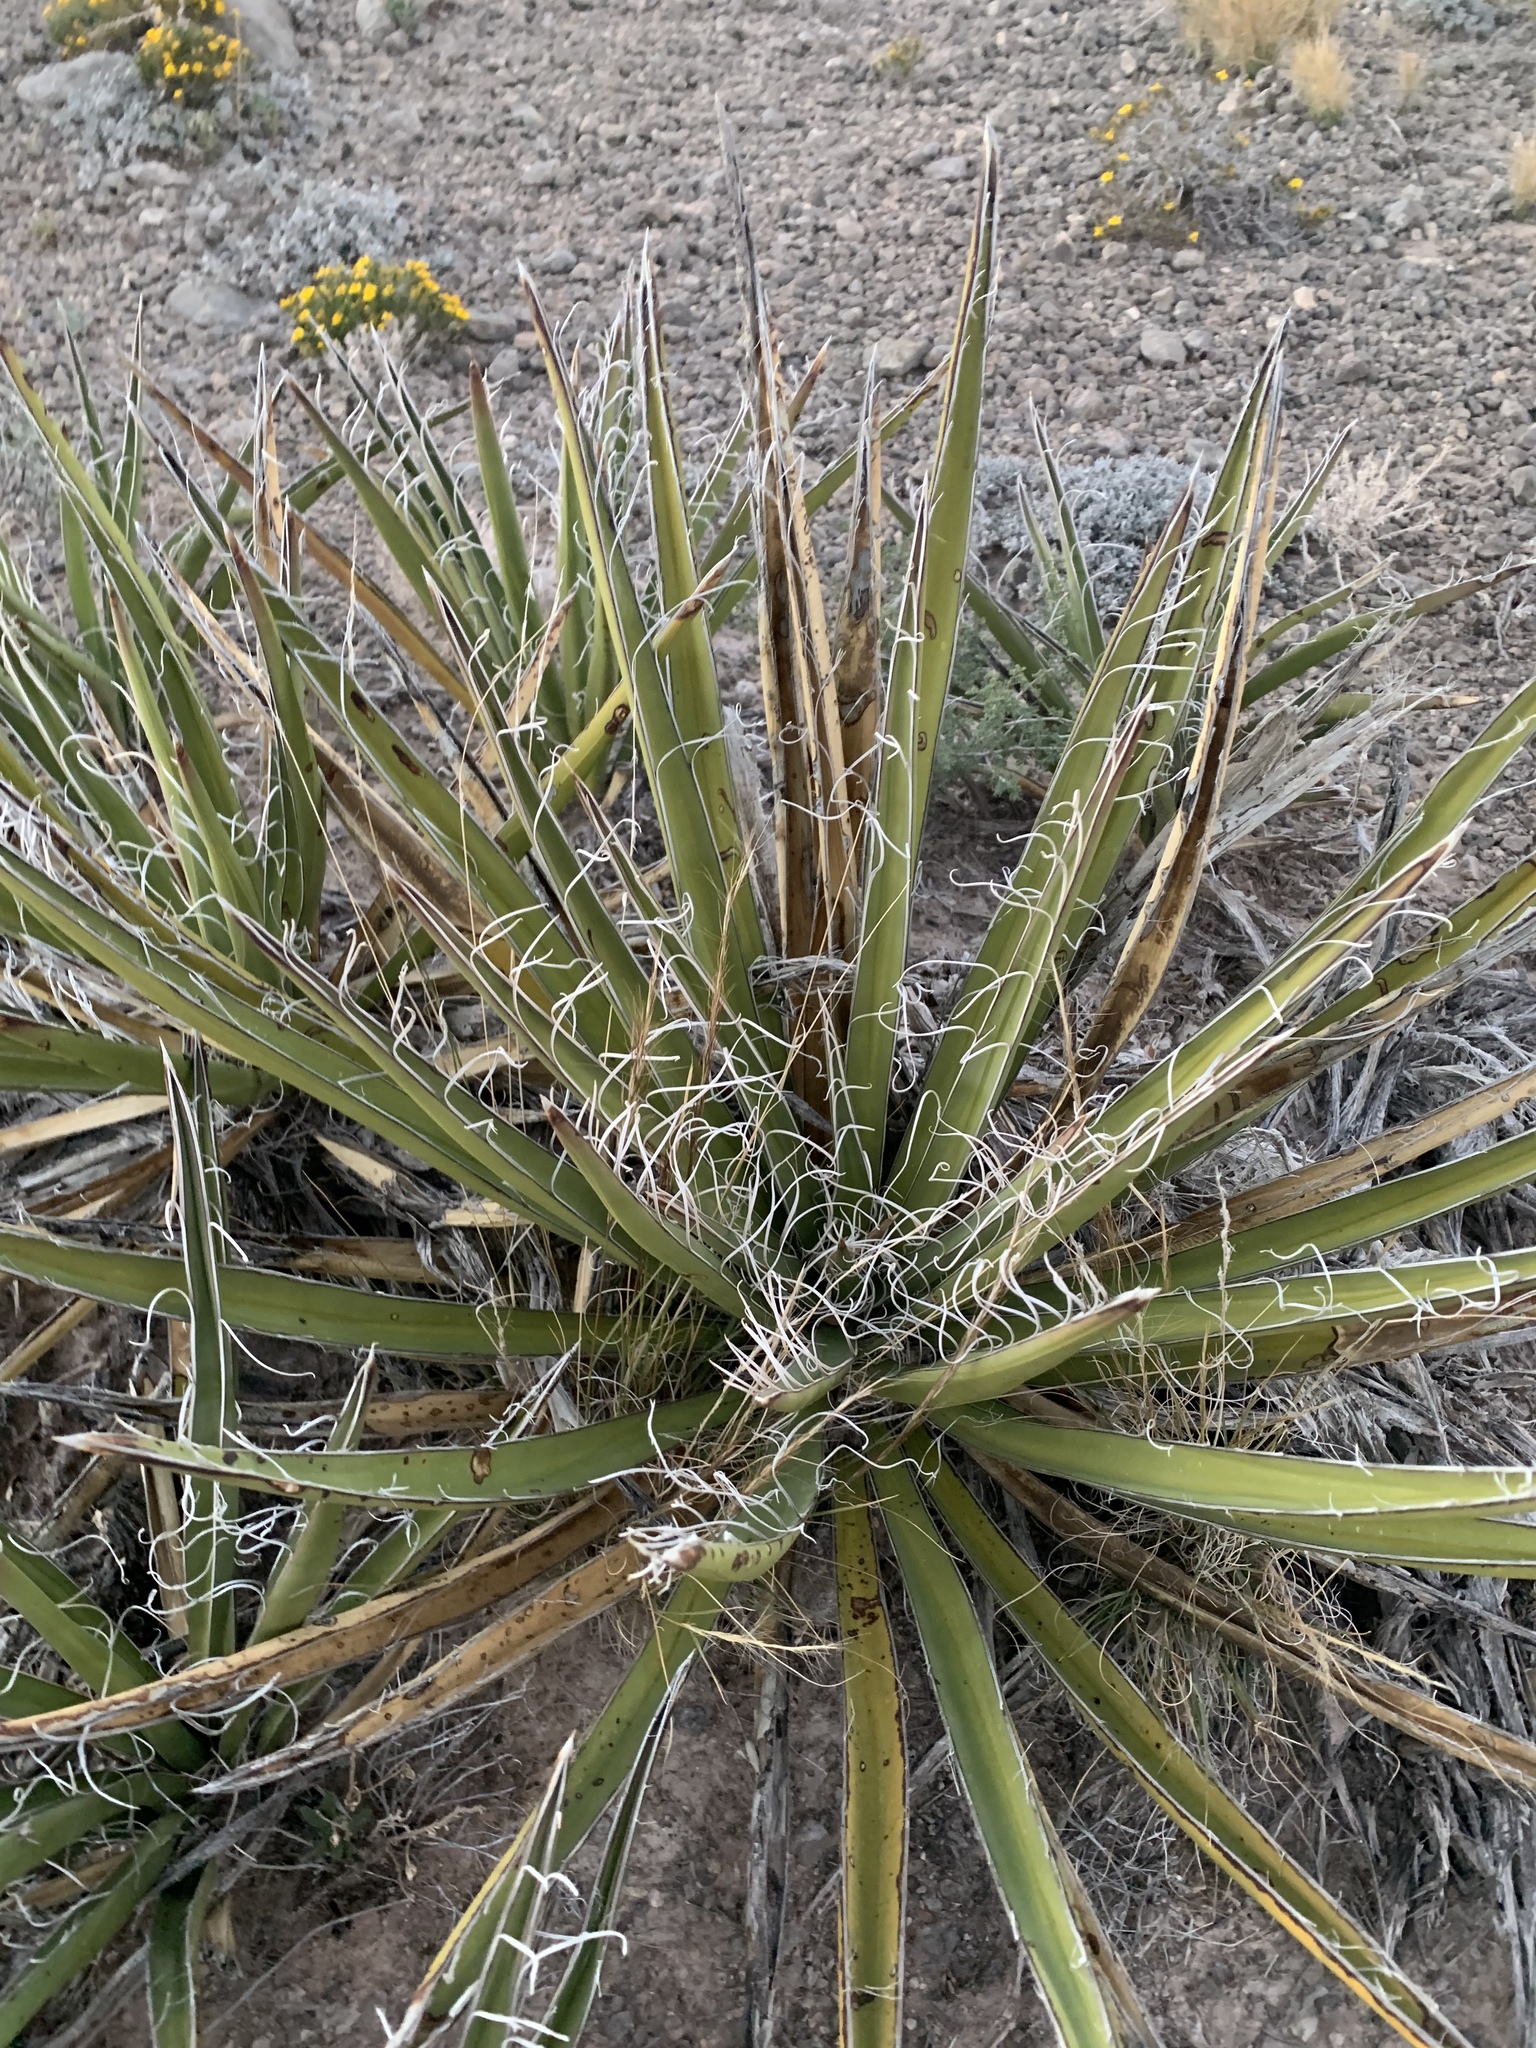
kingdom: Plantae
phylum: Tracheophyta
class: Liliopsida
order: Asparagales
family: Asparagaceae
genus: Yucca
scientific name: Yucca baccata
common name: Banana yucca
